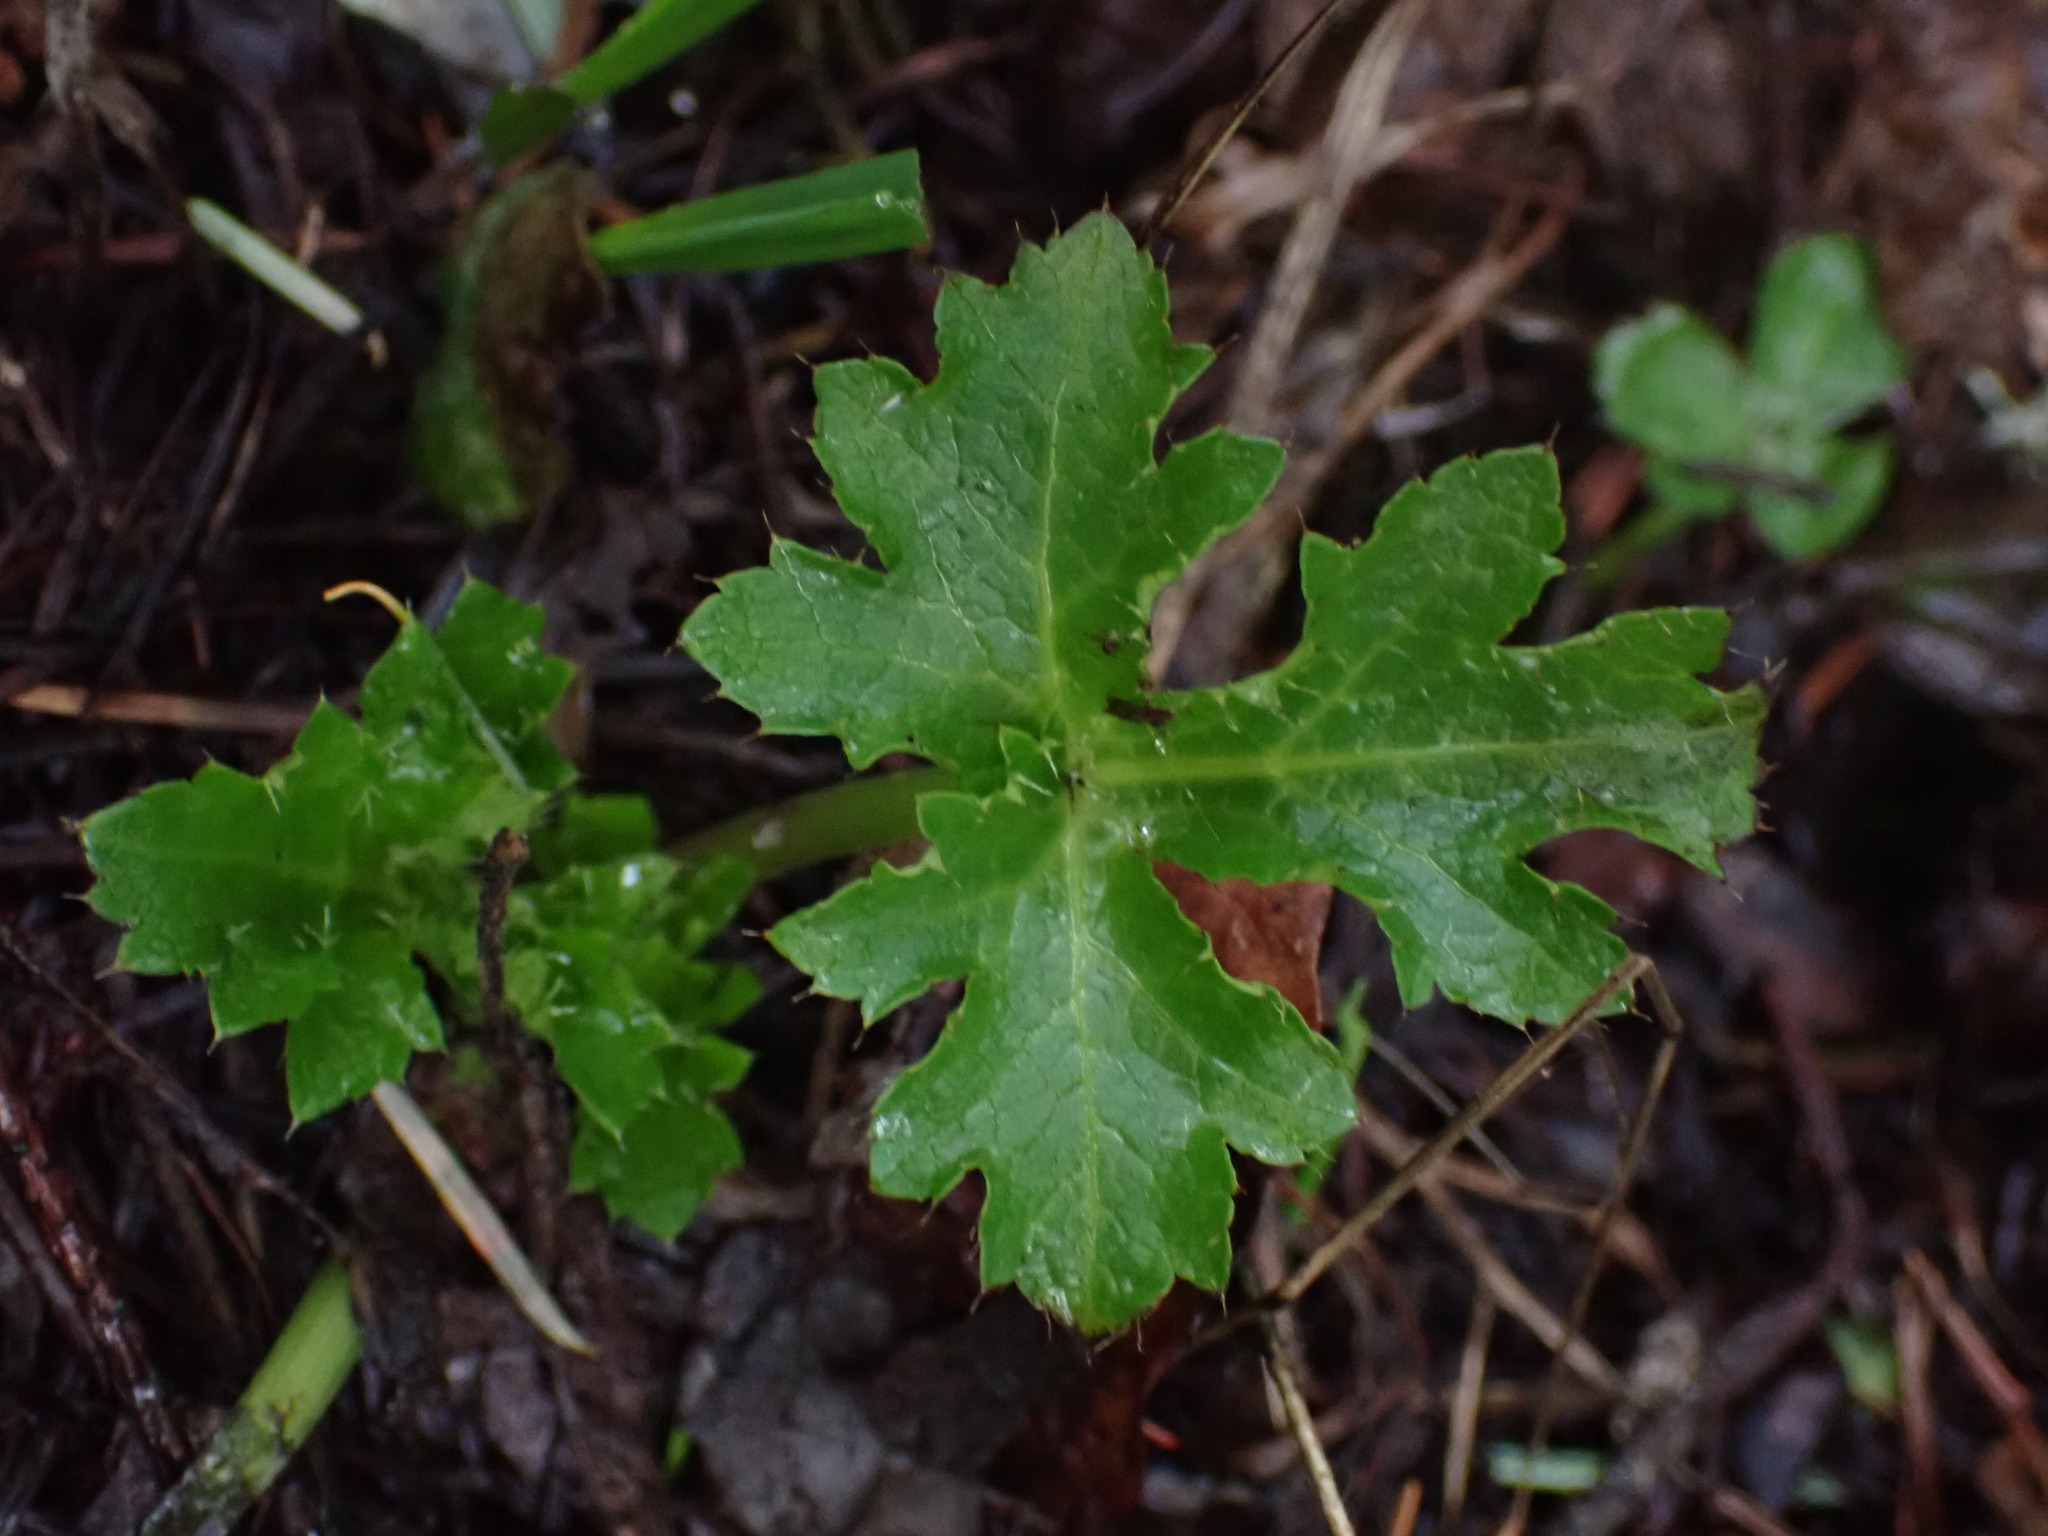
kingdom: Plantae
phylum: Tracheophyta
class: Magnoliopsida
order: Apiales
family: Apiaceae
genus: Sanicula
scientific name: Sanicula crassicaulis
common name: Western snakeroot
